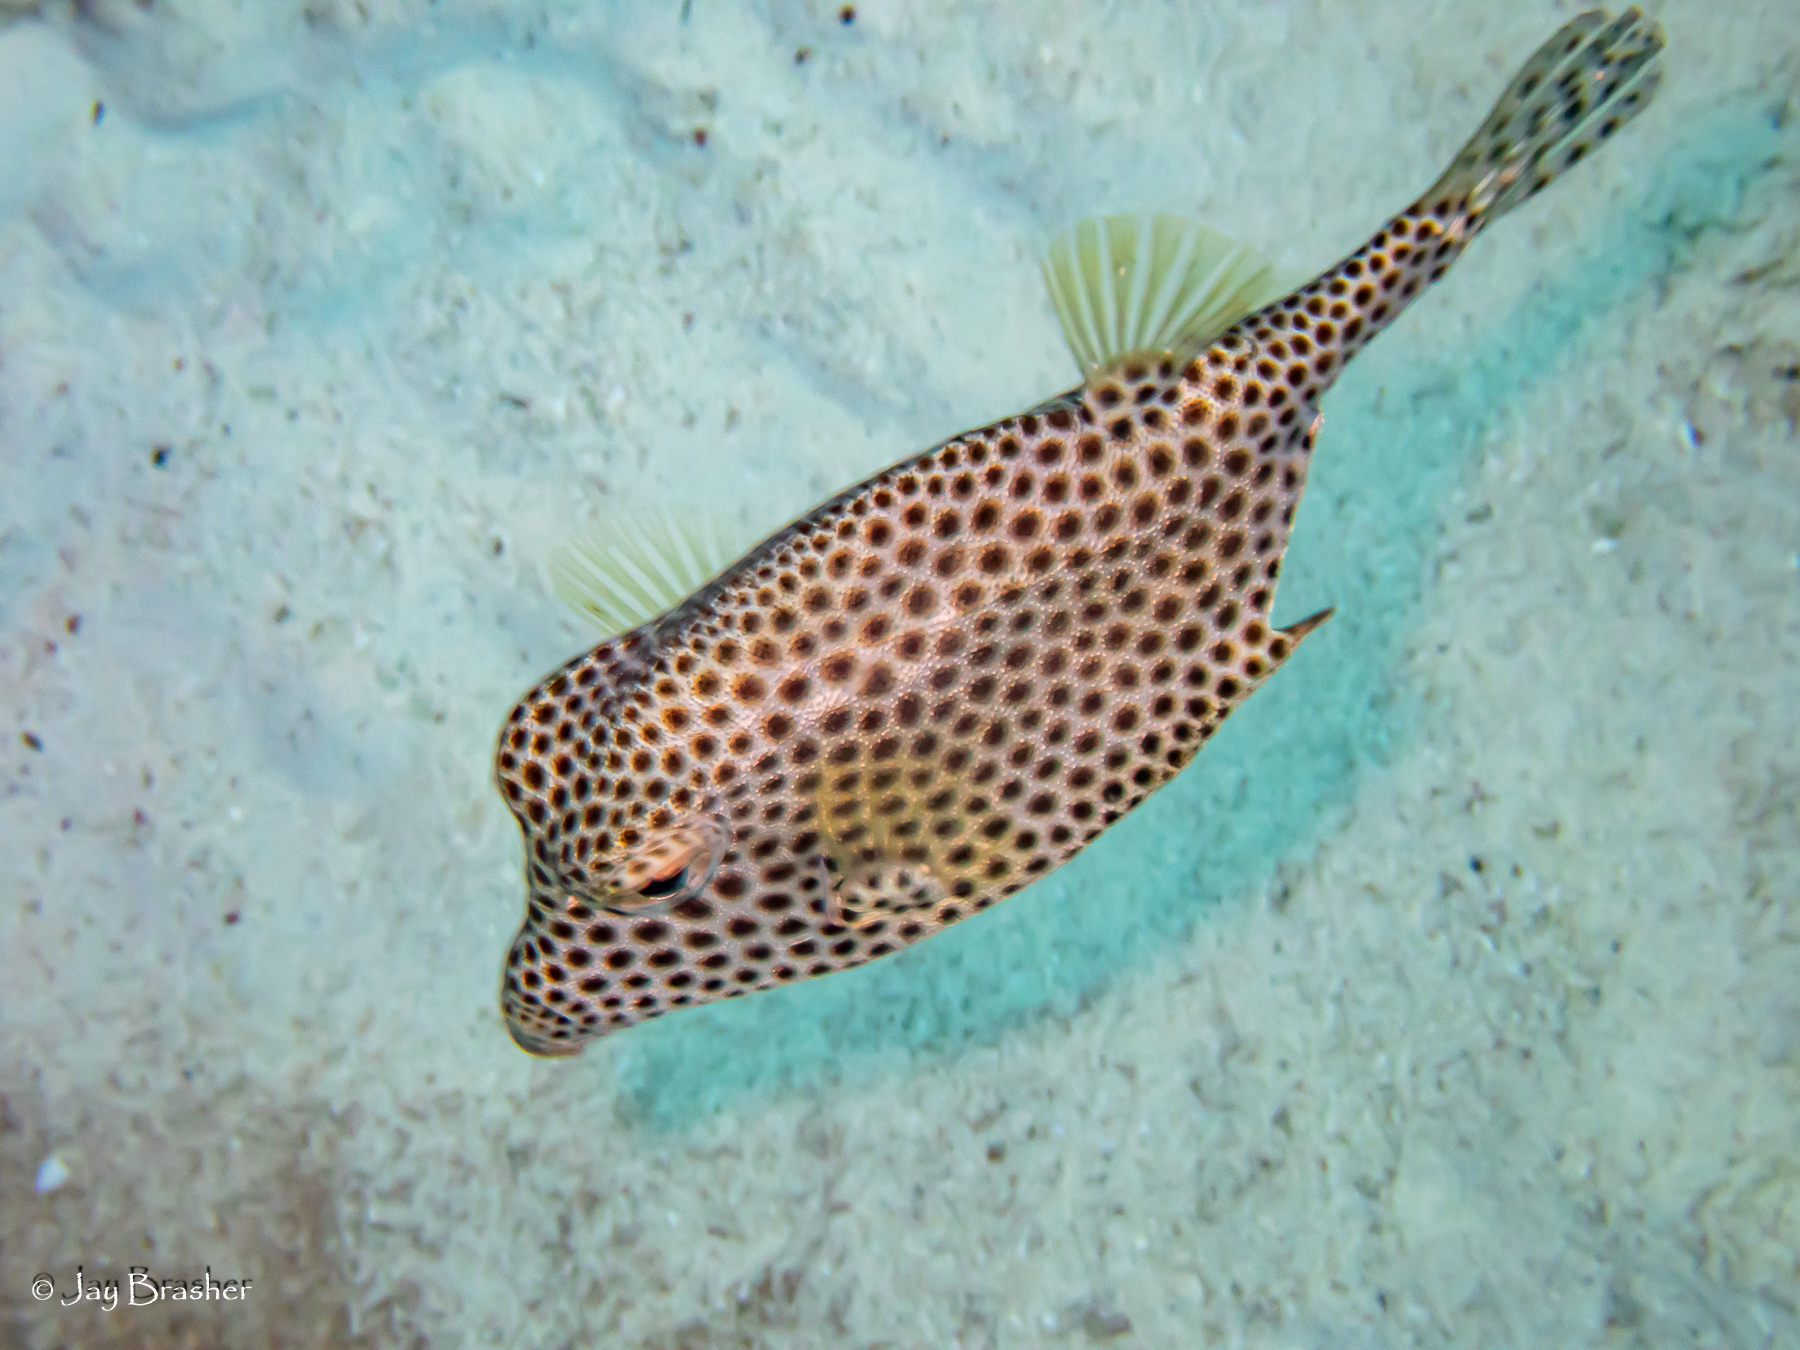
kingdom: Animalia
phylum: Chordata
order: Tetraodontiformes
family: Ostraciidae
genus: Lactophrys
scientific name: Lactophrys bicaudalis
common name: Spotted trunkfish
